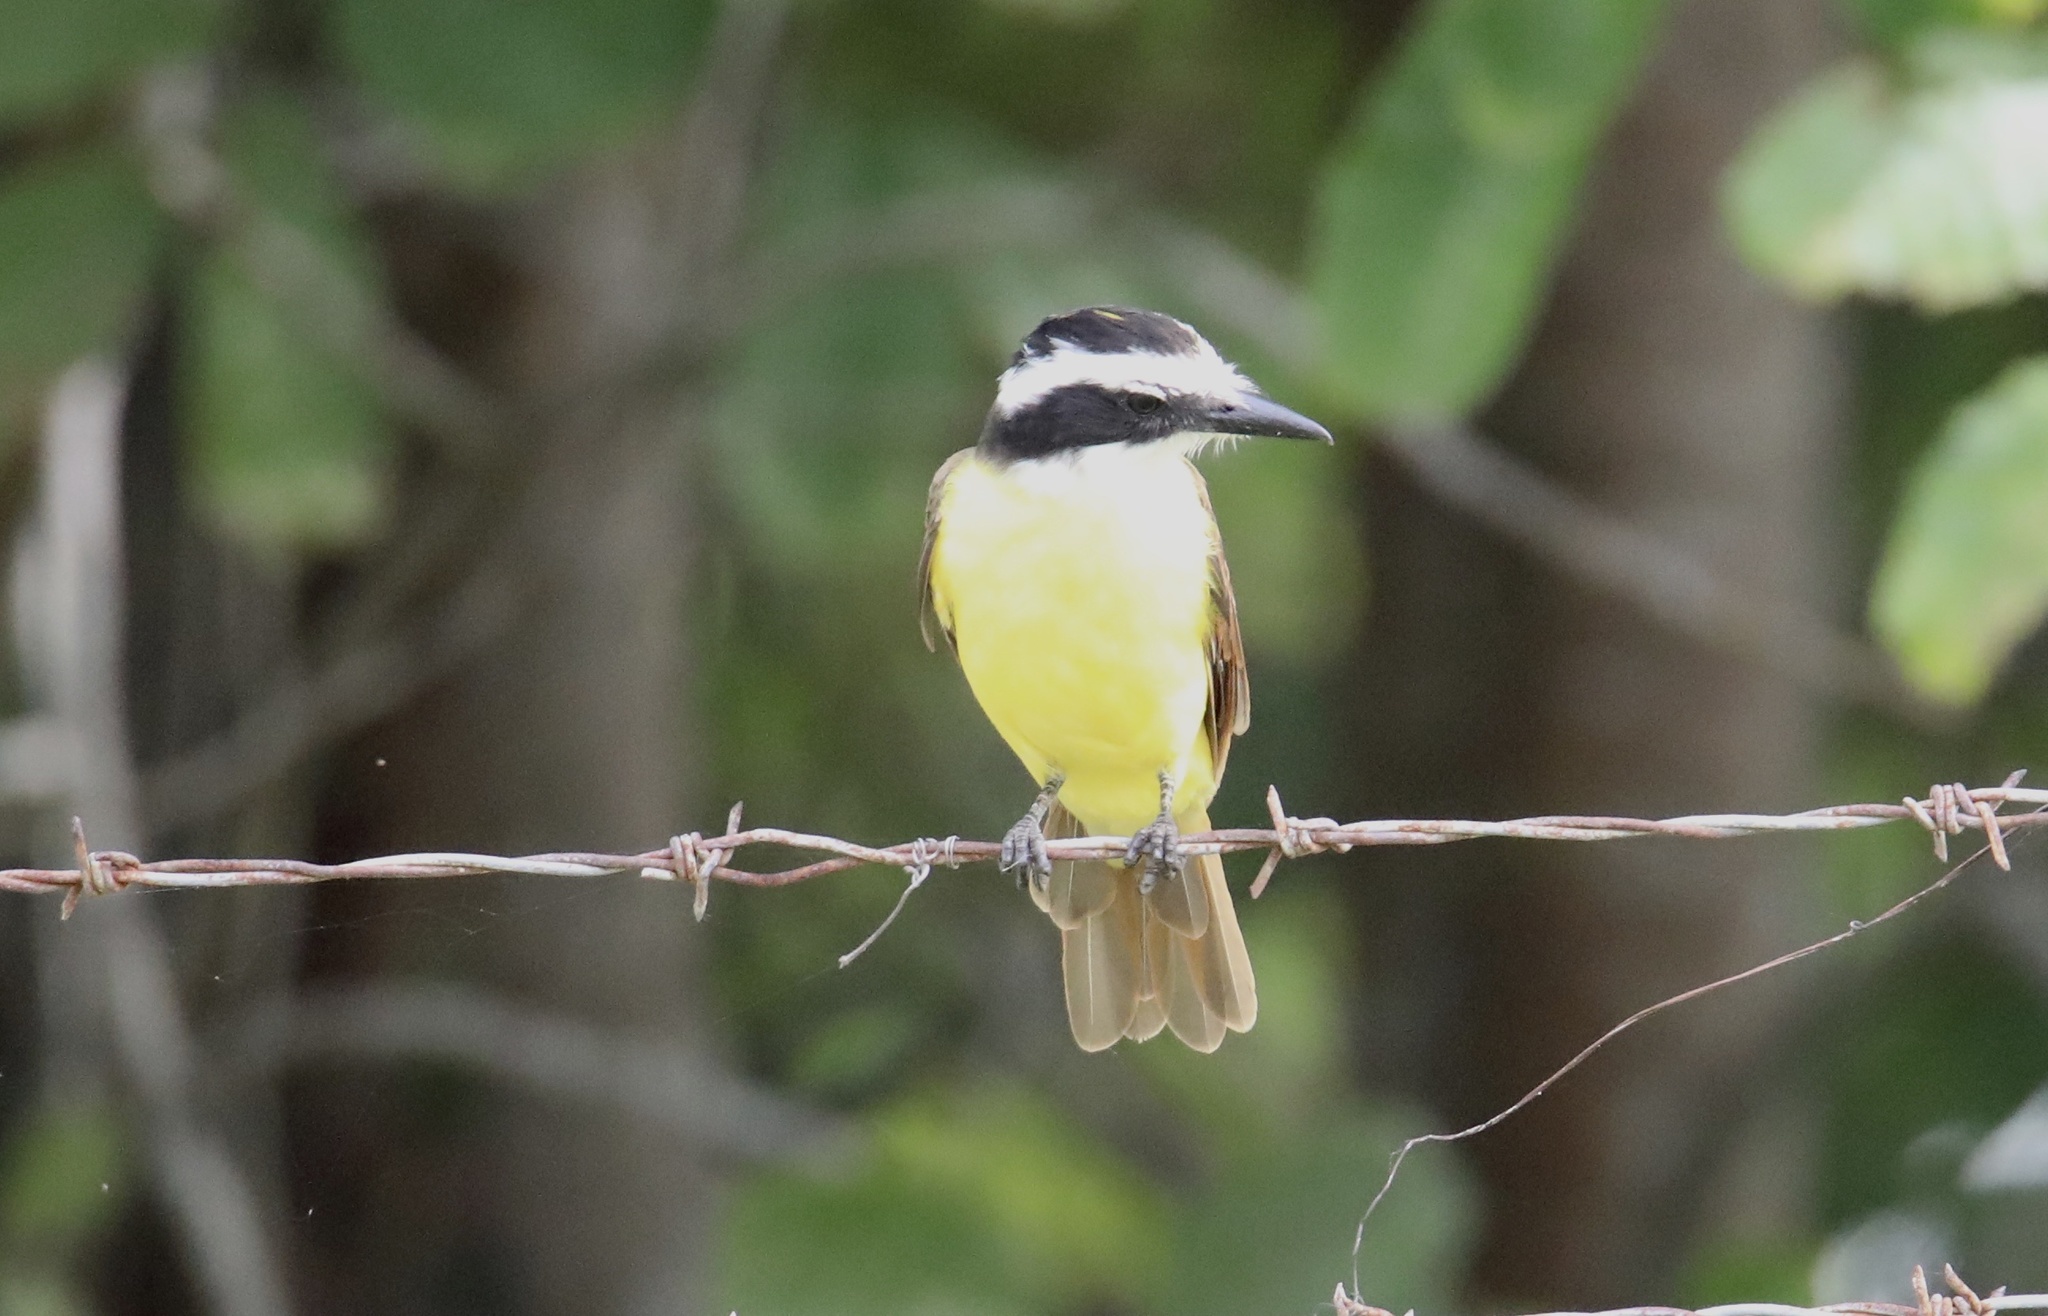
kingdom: Animalia
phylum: Chordata
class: Aves
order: Passeriformes
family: Tyrannidae
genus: Pitangus
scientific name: Pitangus sulphuratus
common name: Great kiskadee
